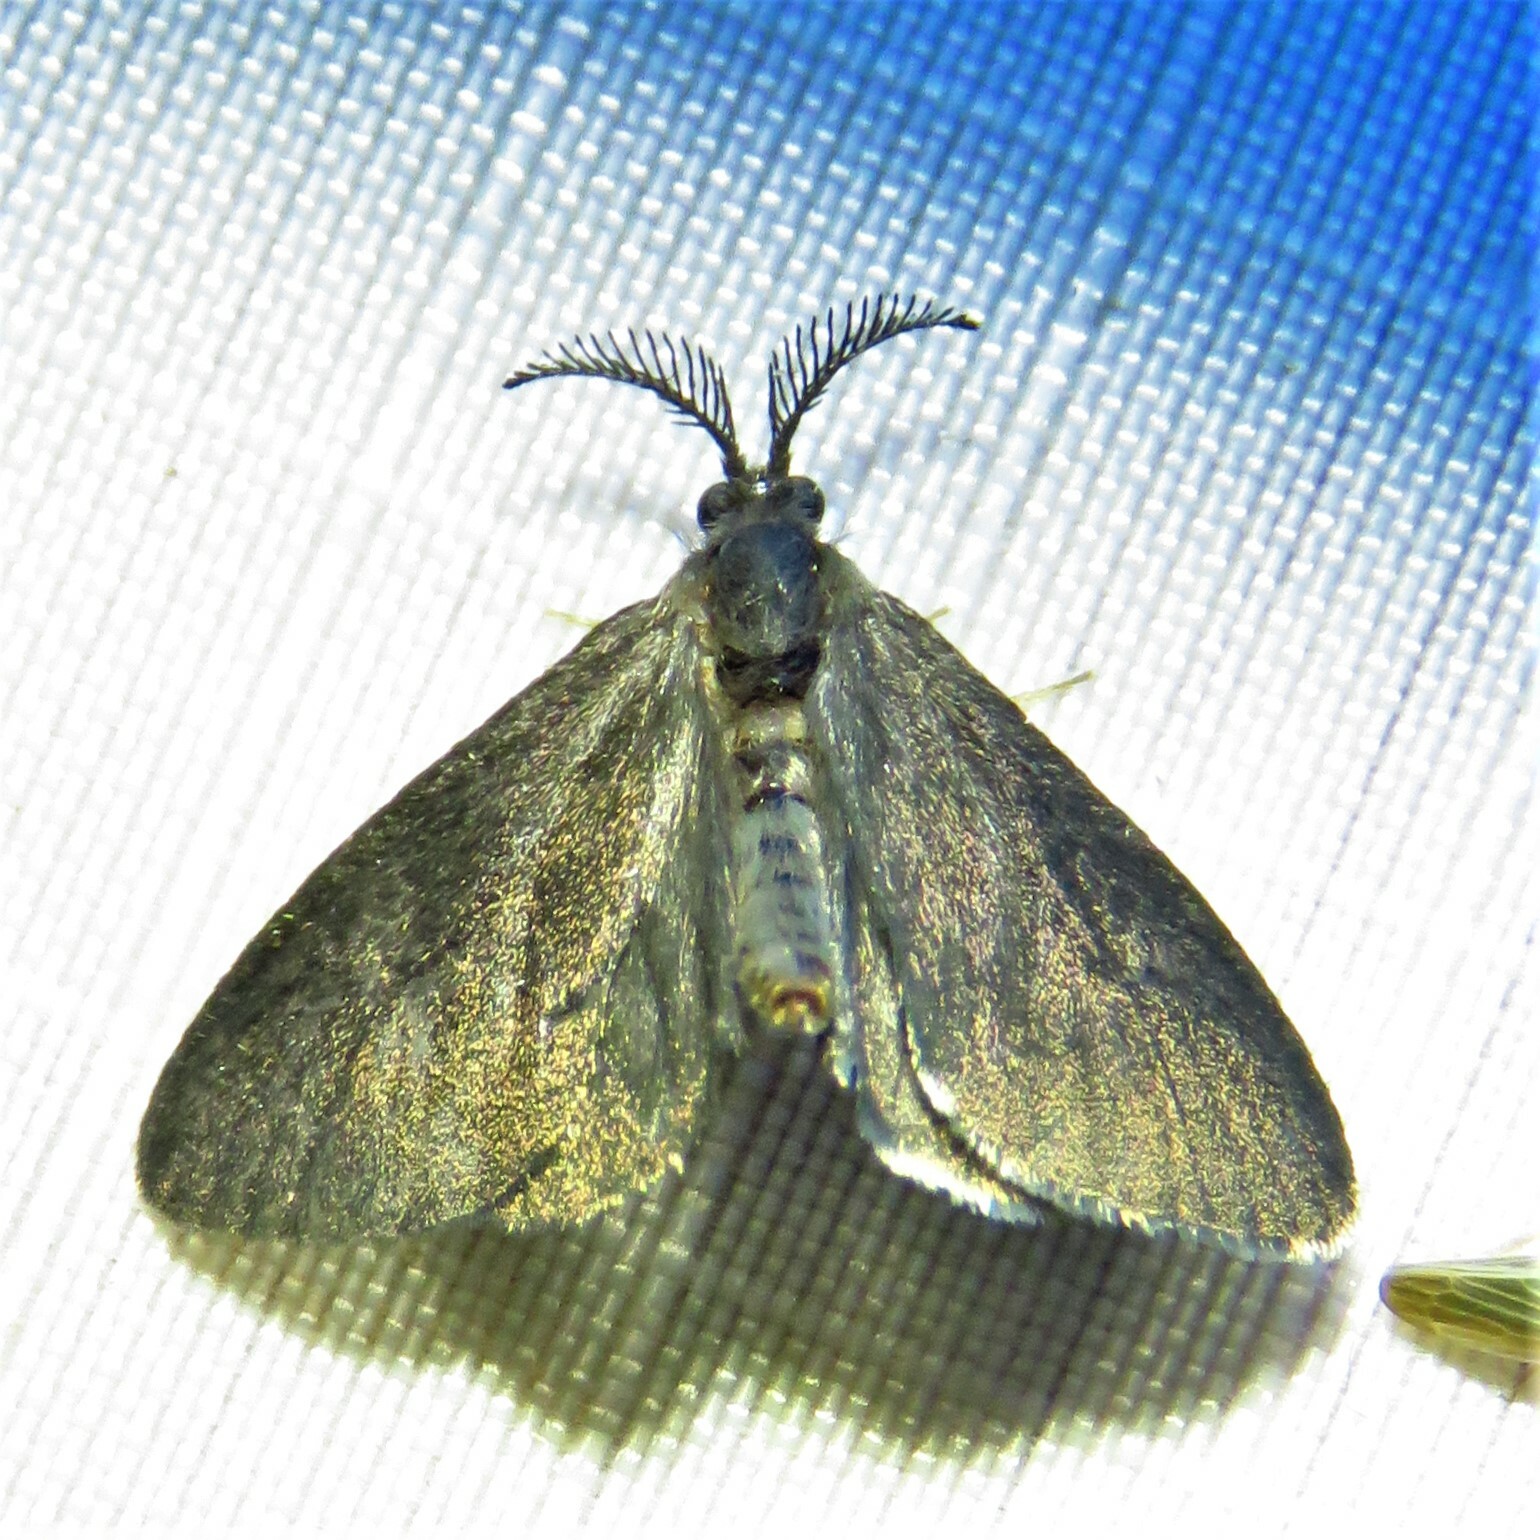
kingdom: Animalia
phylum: Arthropoda
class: Insecta
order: Lepidoptera
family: Psychidae
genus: Cryptothelea
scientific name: Cryptothelea gloverii
